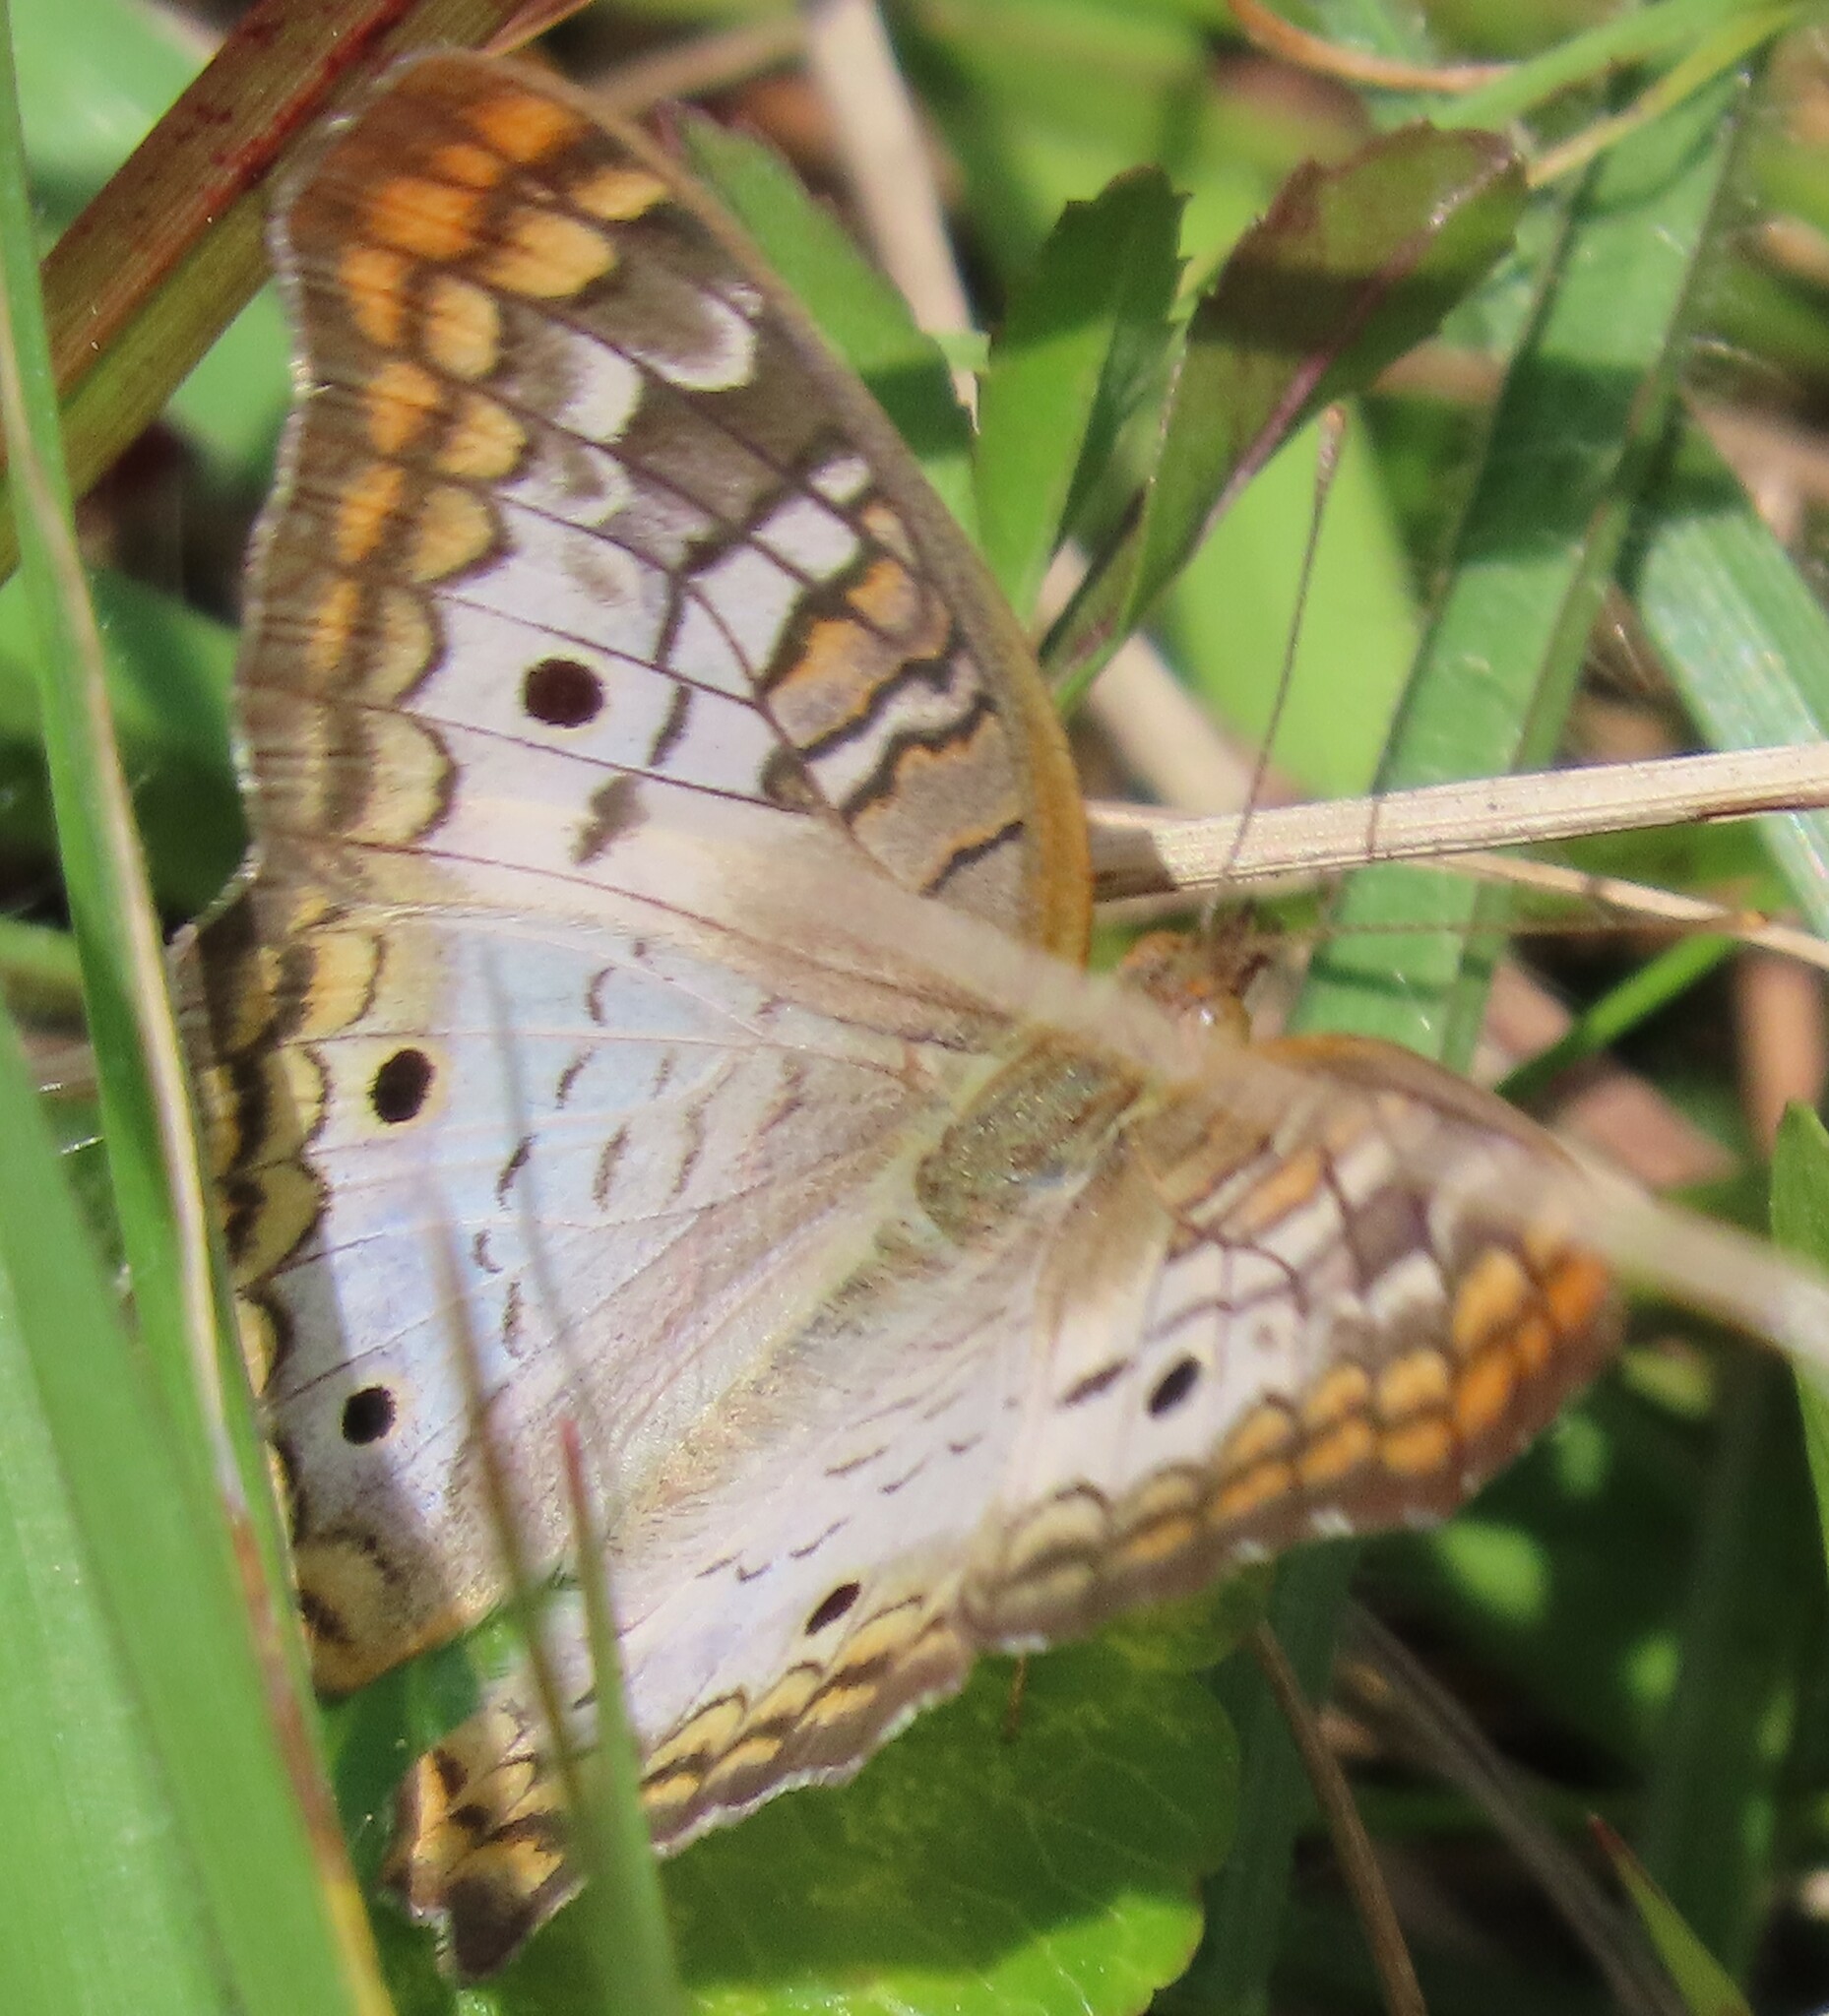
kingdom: Animalia
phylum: Arthropoda
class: Insecta
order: Lepidoptera
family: Nymphalidae
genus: Anartia
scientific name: Anartia jatrophae
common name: White peacock
